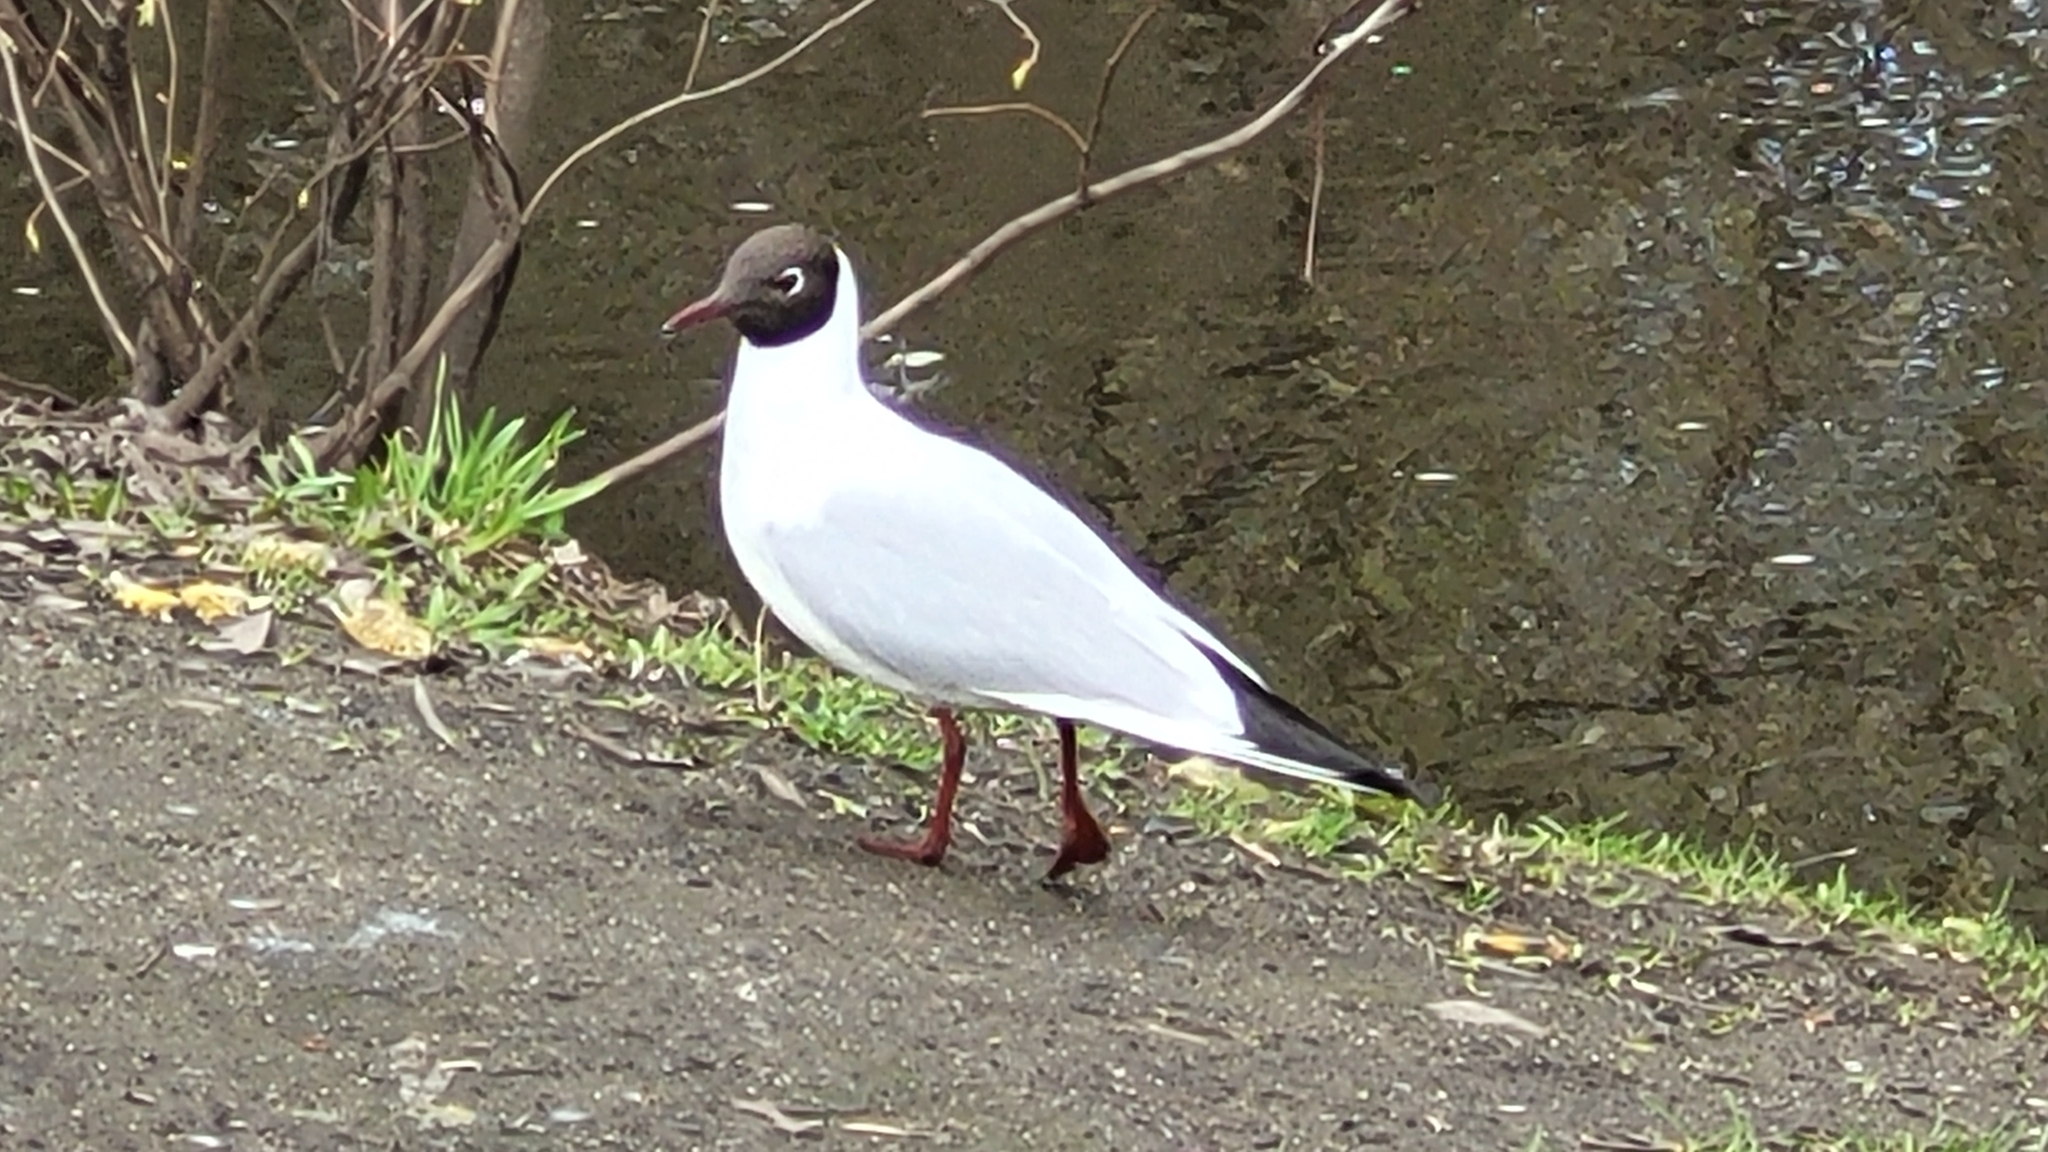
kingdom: Animalia
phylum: Chordata
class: Aves
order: Charadriiformes
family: Laridae
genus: Chroicocephalus
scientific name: Chroicocephalus ridibundus
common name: Black-headed gull
